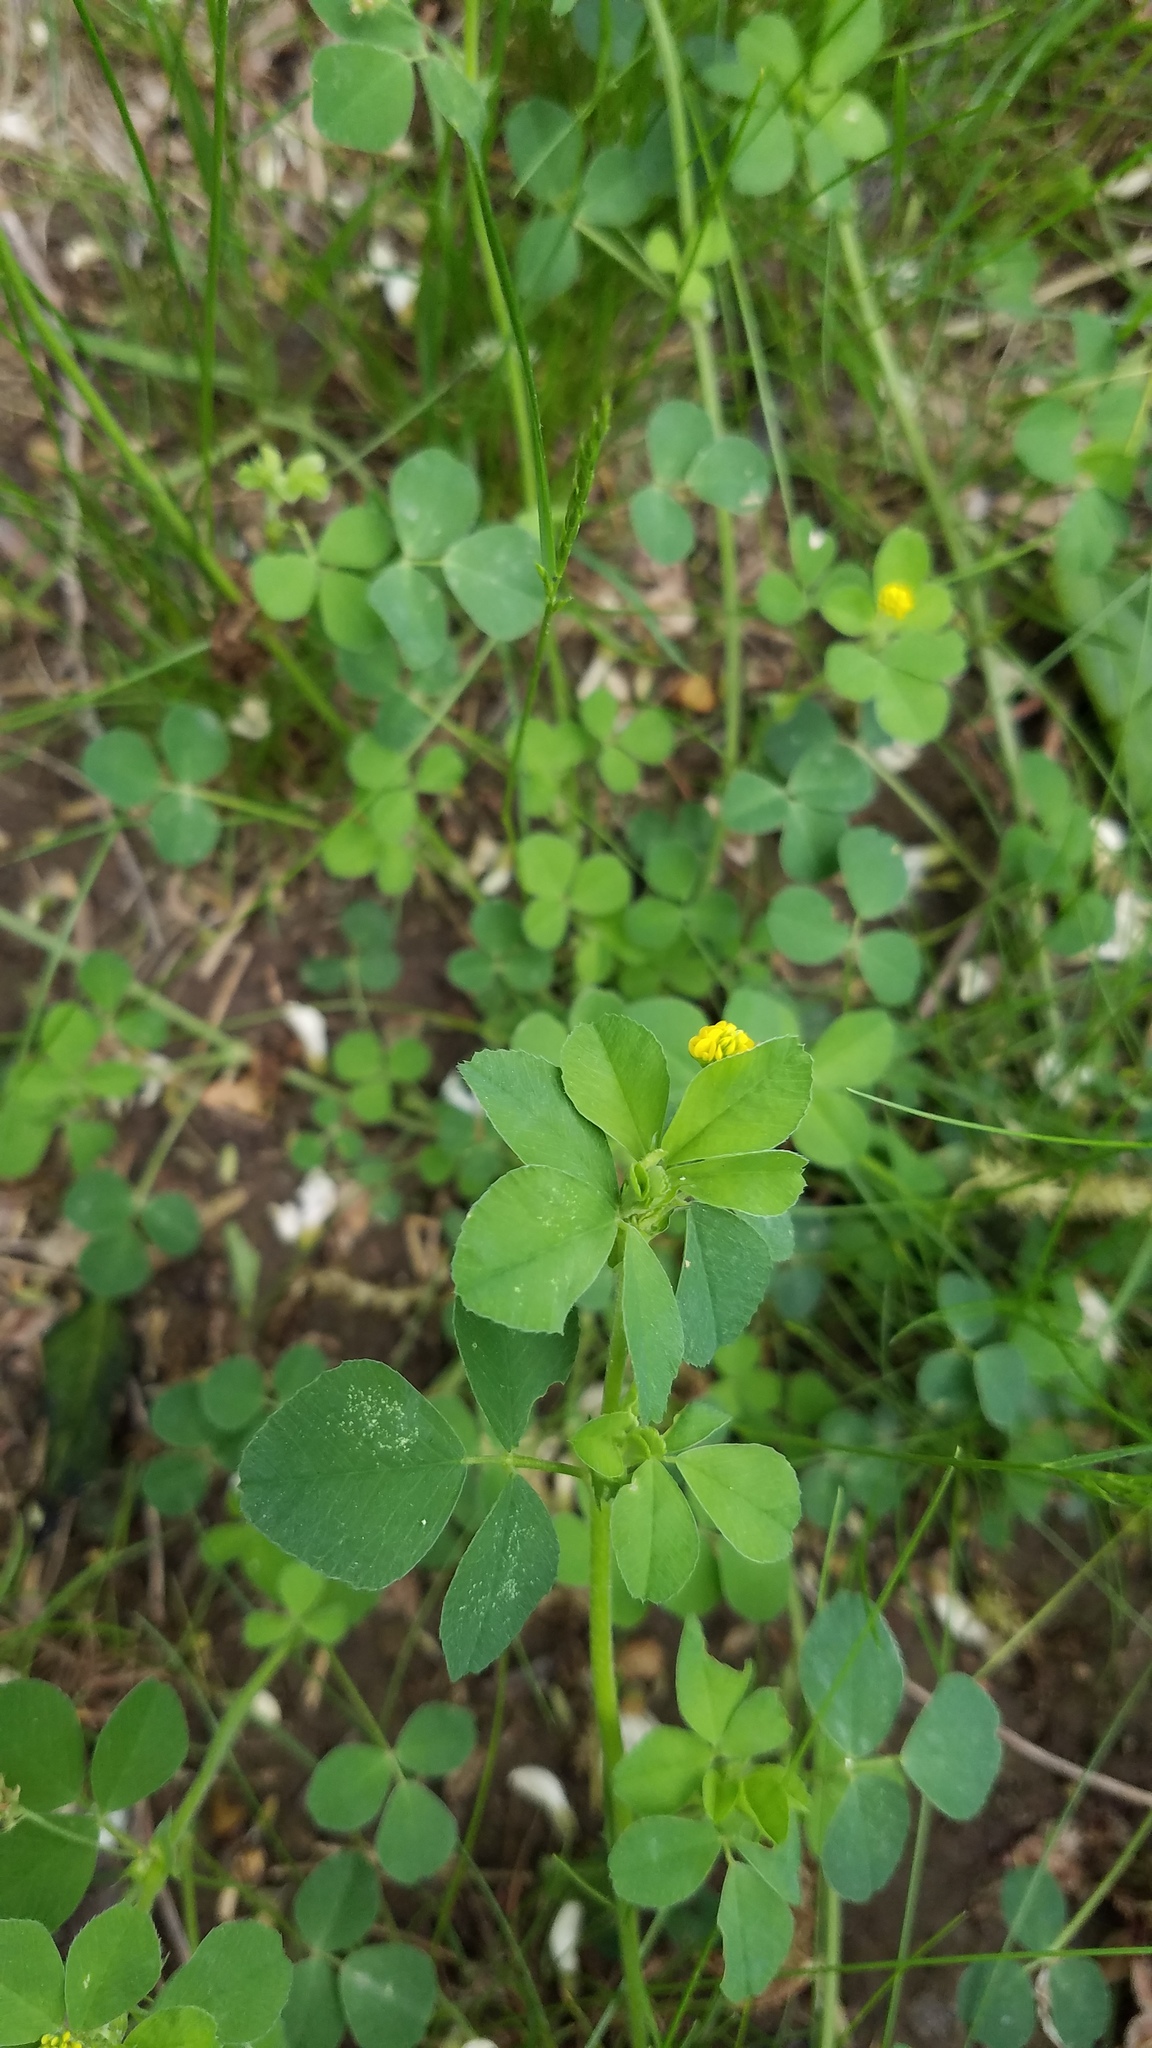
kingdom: Plantae
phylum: Tracheophyta
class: Magnoliopsida
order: Fabales
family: Fabaceae
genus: Medicago
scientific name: Medicago lupulina
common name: Black medick
